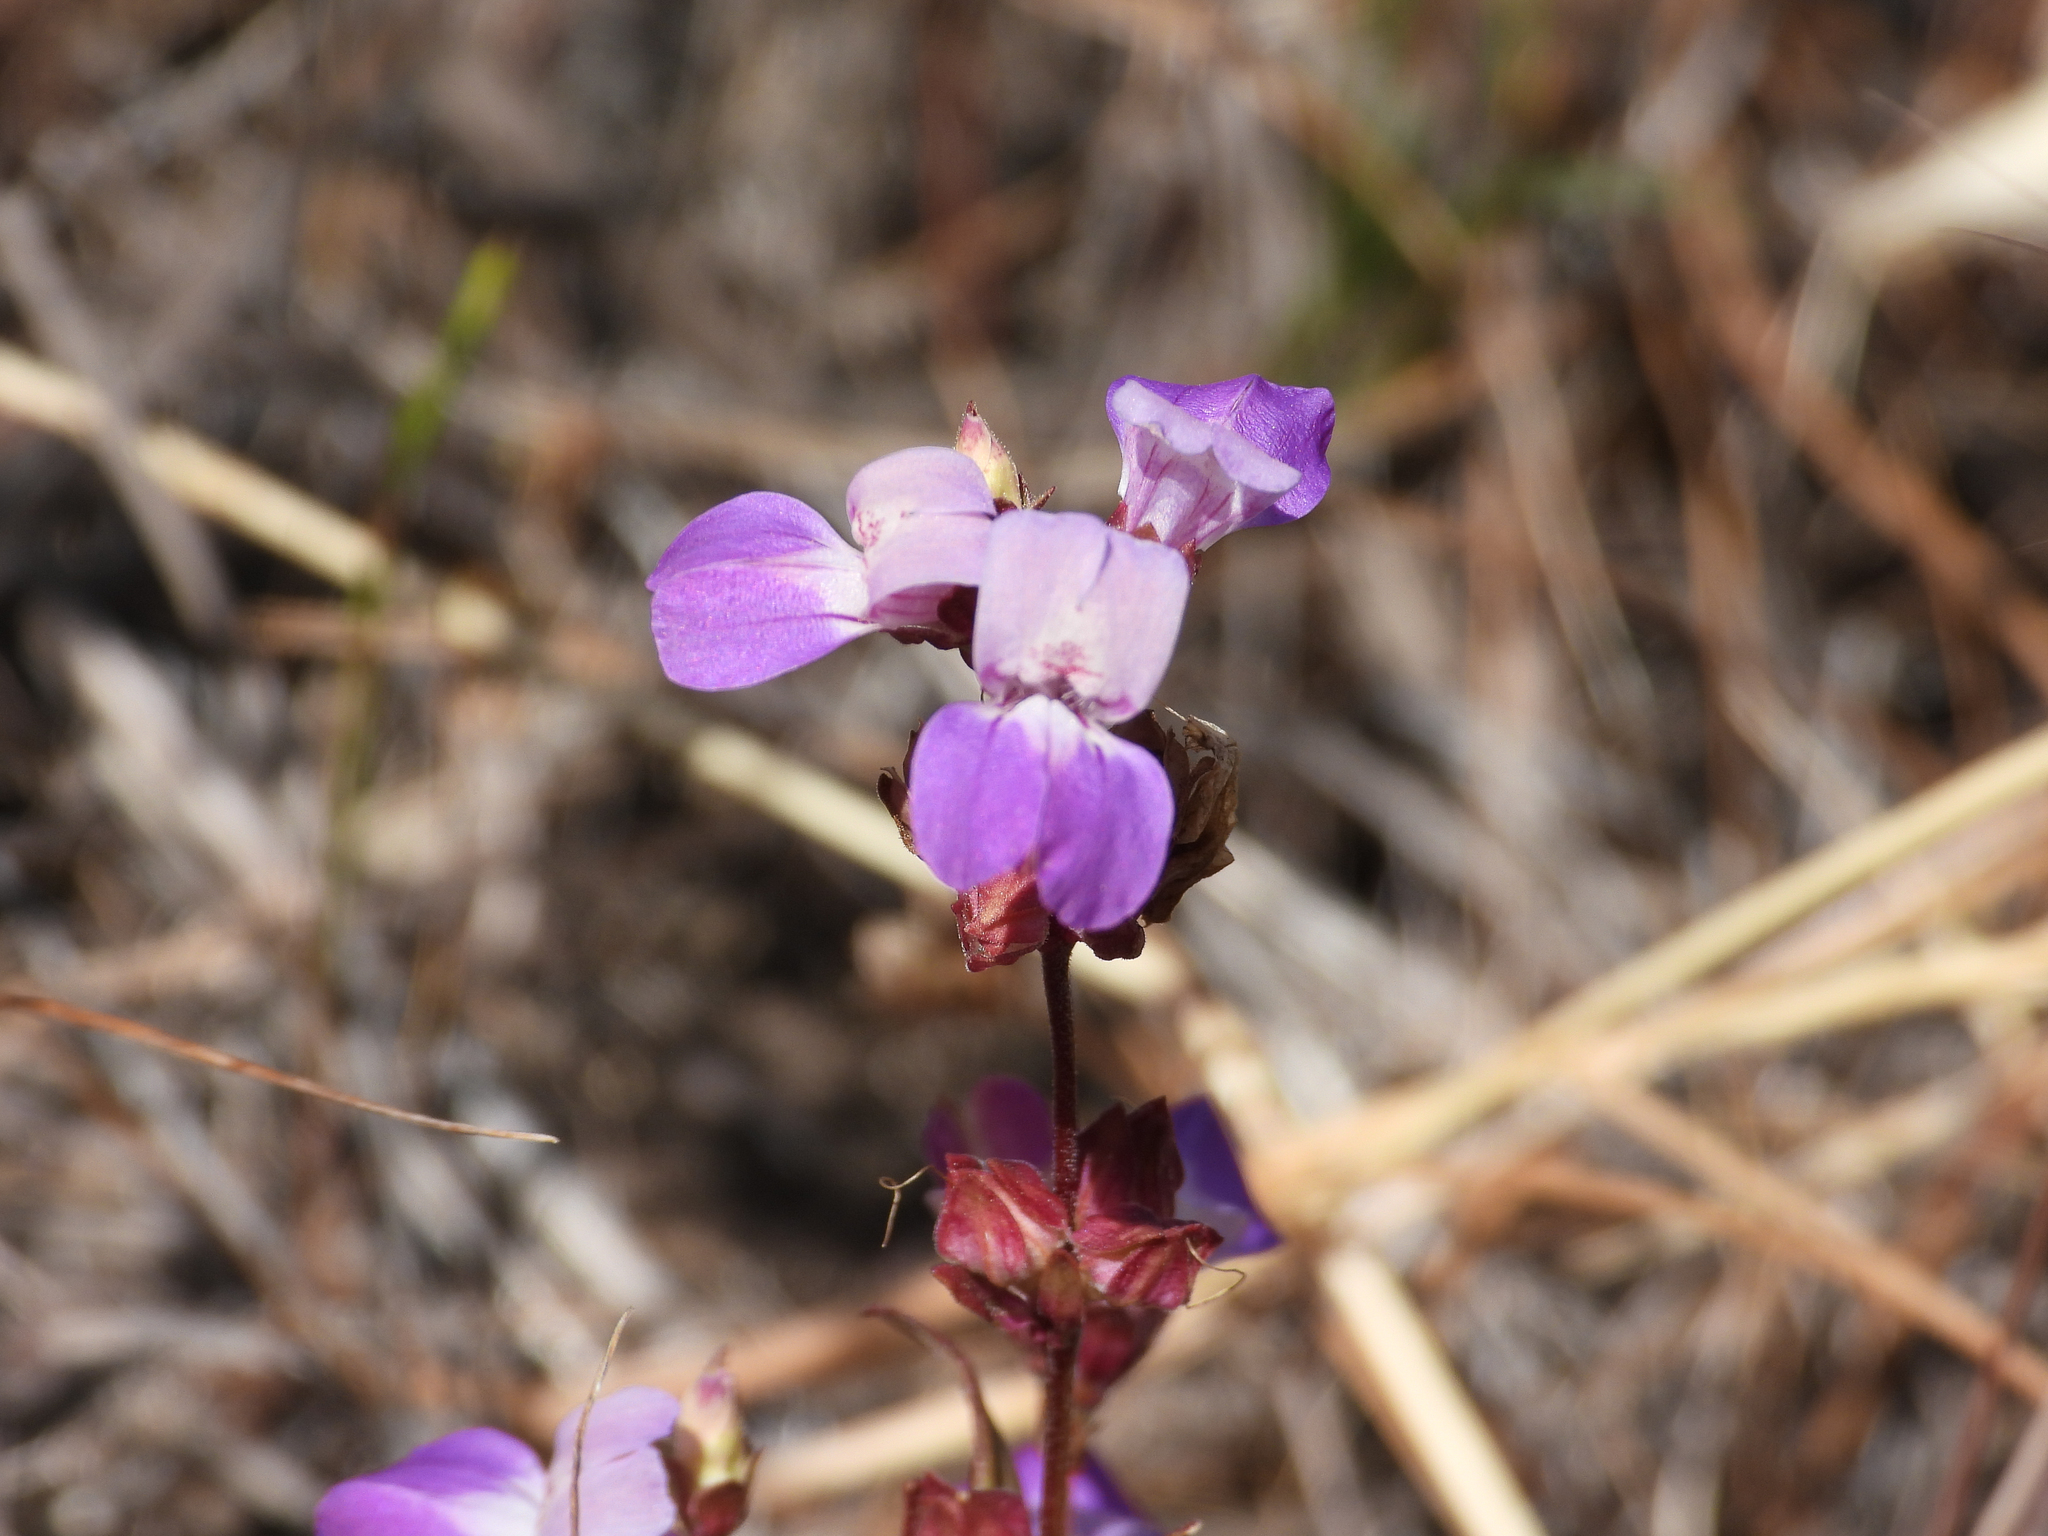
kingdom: Plantae
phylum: Tracheophyta
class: Magnoliopsida
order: Lamiales
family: Plantaginaceae
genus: Collinsia
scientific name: Collinsia heterophylla
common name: Chinese-houses
